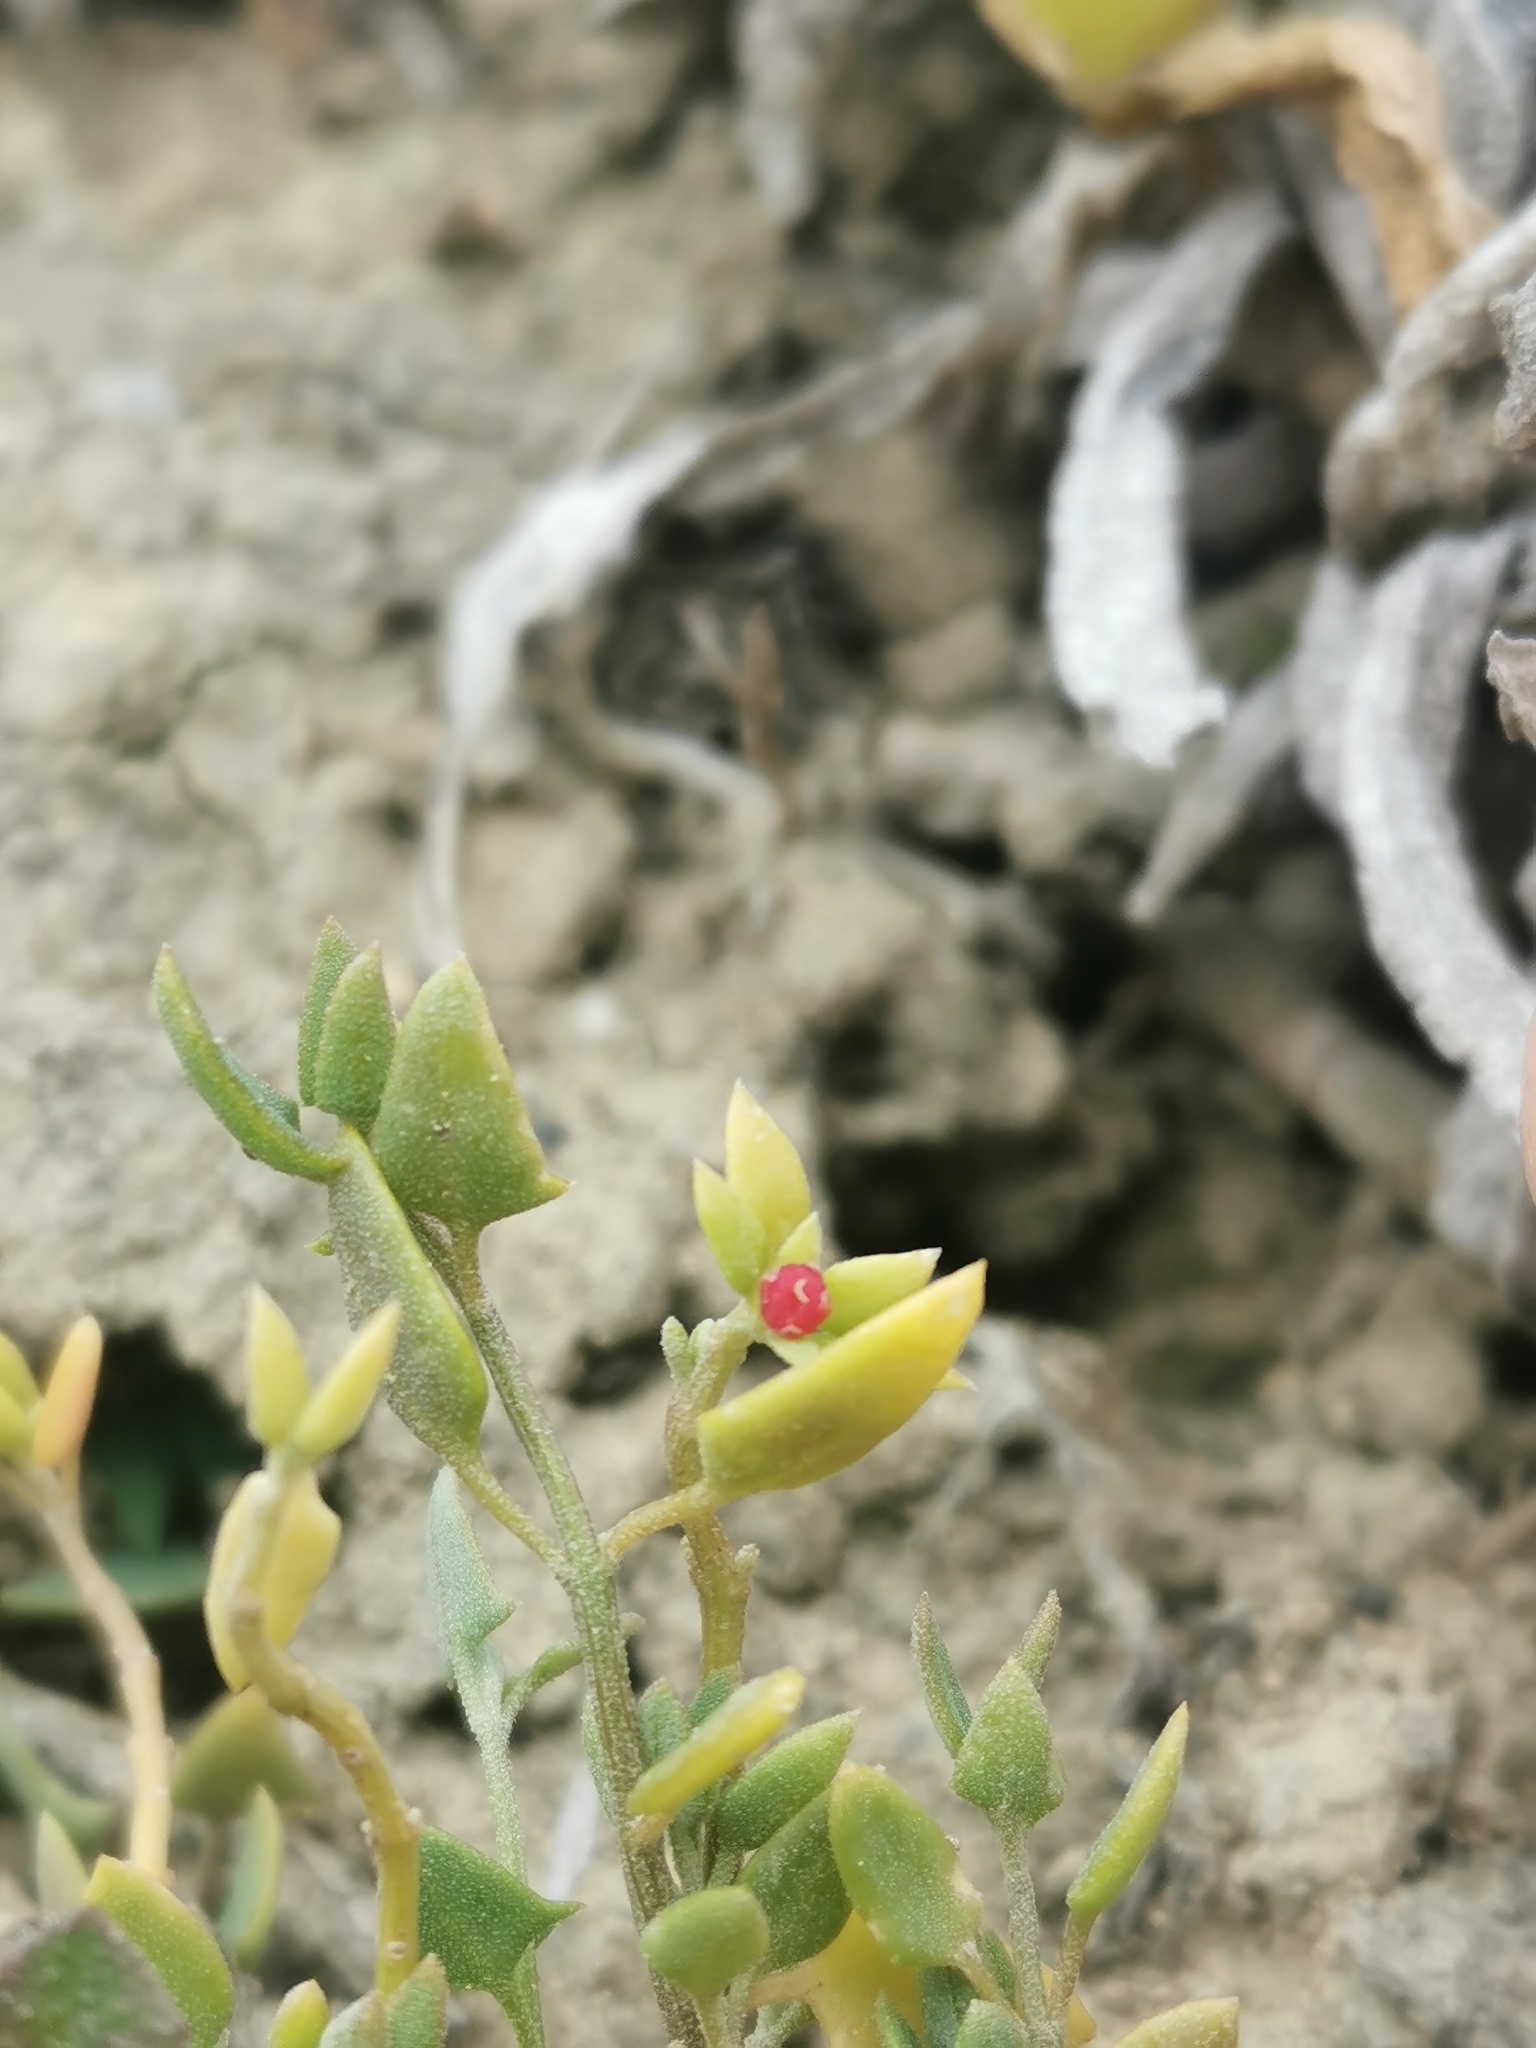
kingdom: Plantae
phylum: Tracheophyta
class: Magnoliopsida
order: Caryophyllales
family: Amaranthaceae
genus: Chenopodium
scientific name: Chenopodium nutans
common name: Climbing-saltbush
